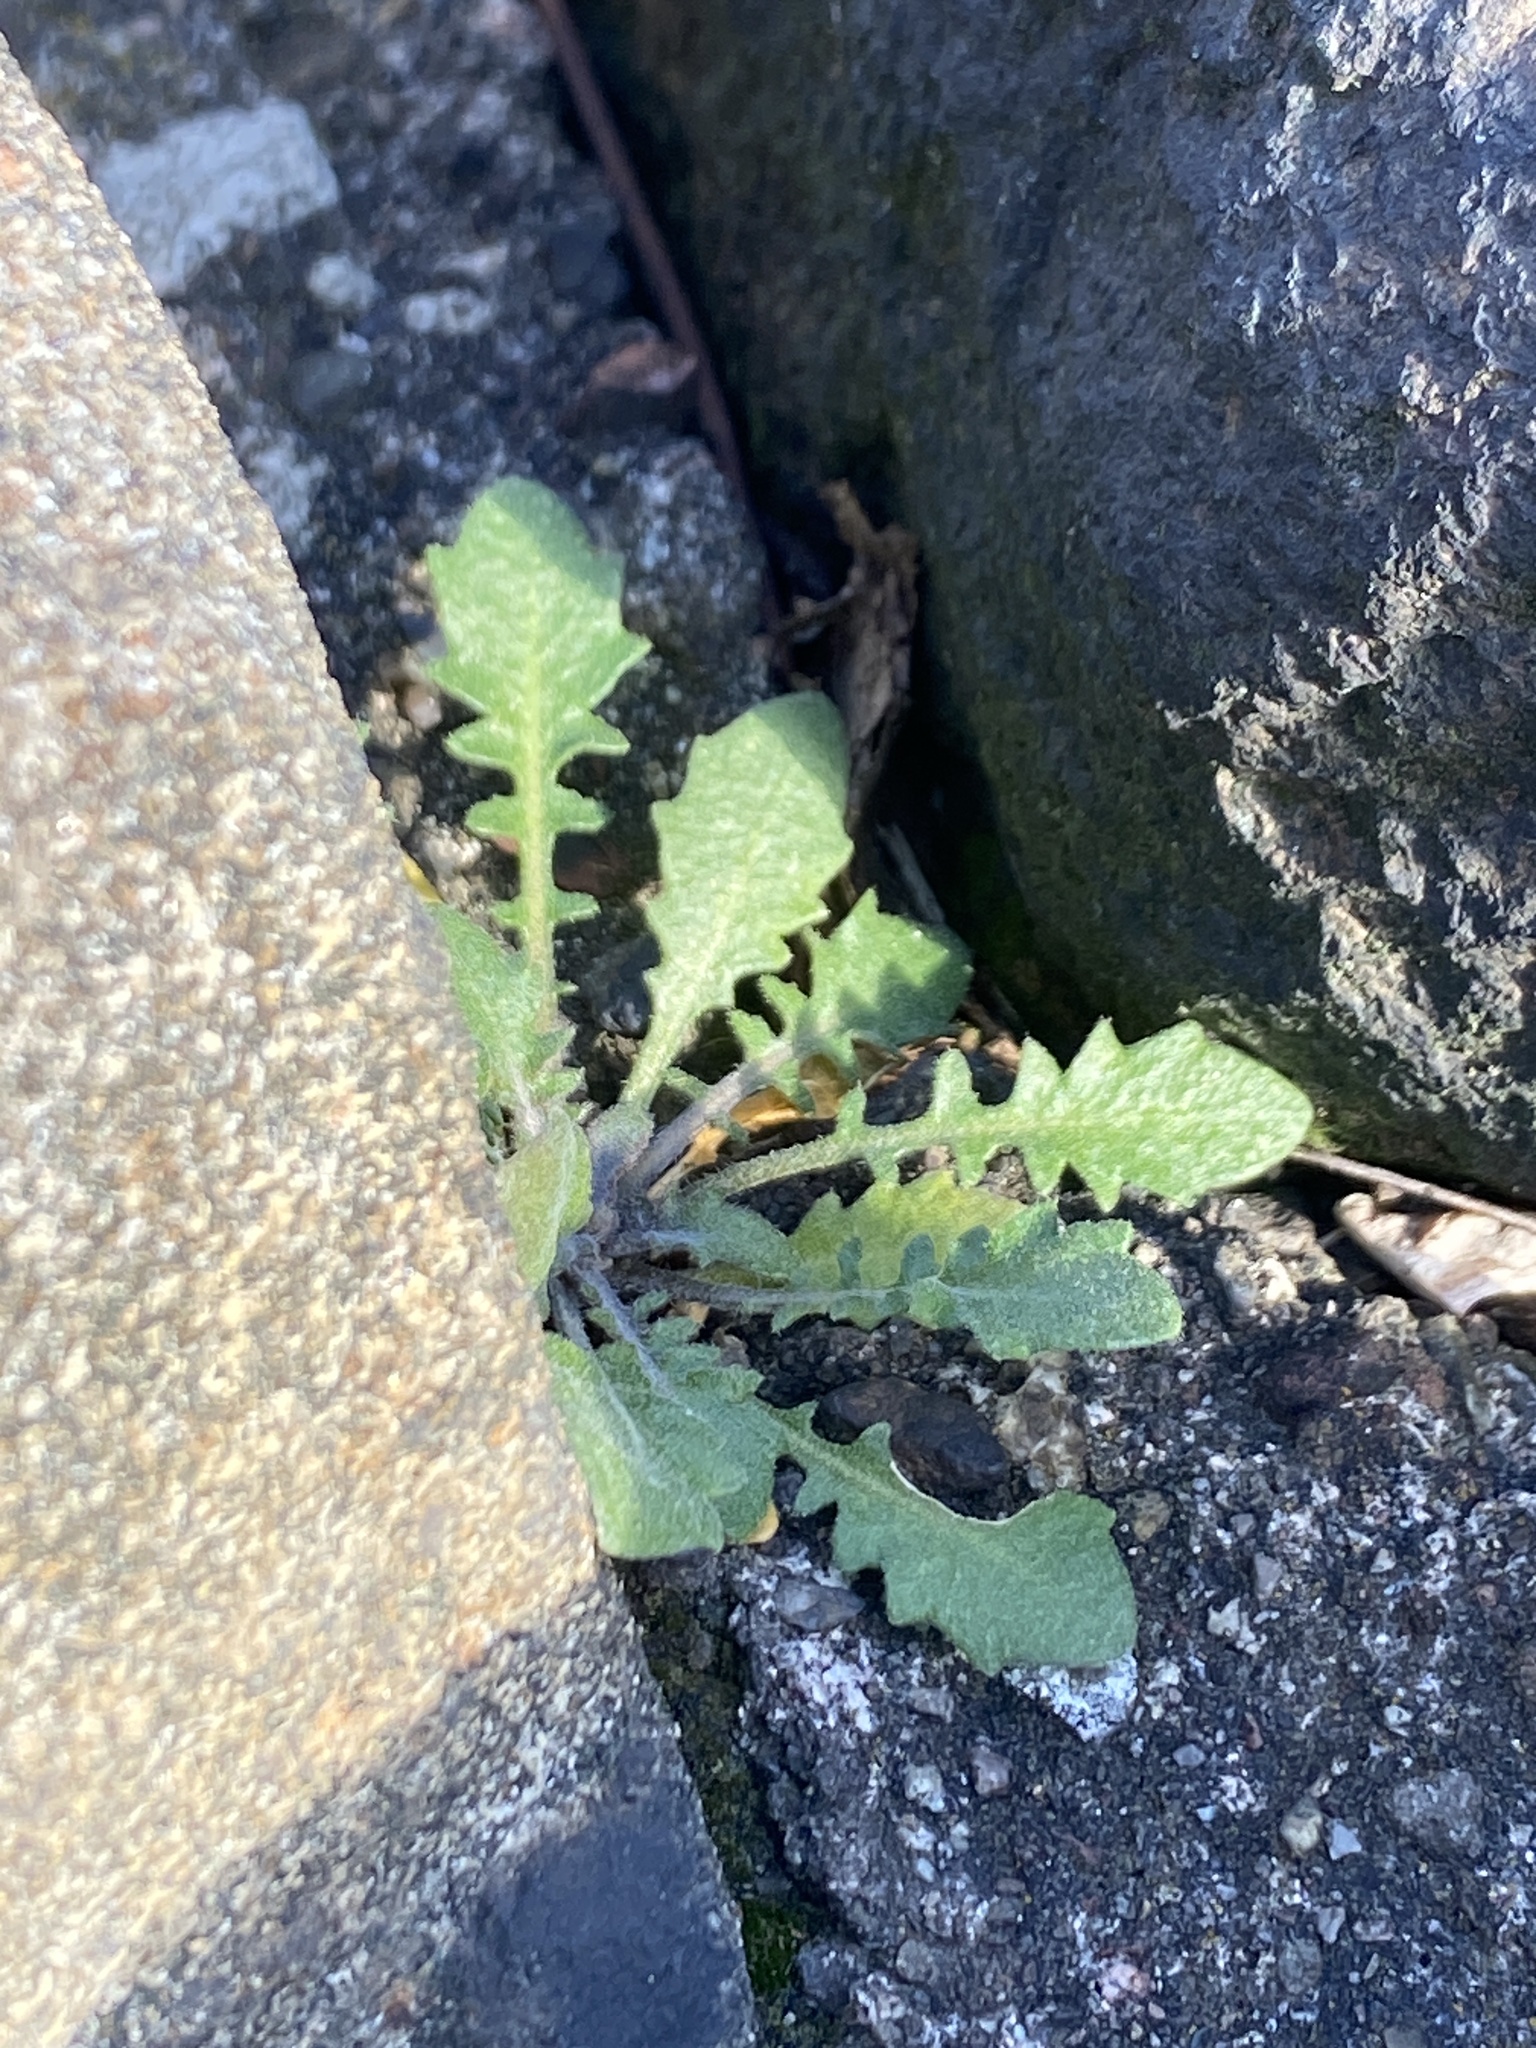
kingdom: Plantae
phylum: Tracheophyta
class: Magnoliopsida
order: Brassicales
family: Brassicaceae
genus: Arabidopsis
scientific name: Arabidopsis lyrata
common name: Lyrate rockcress
